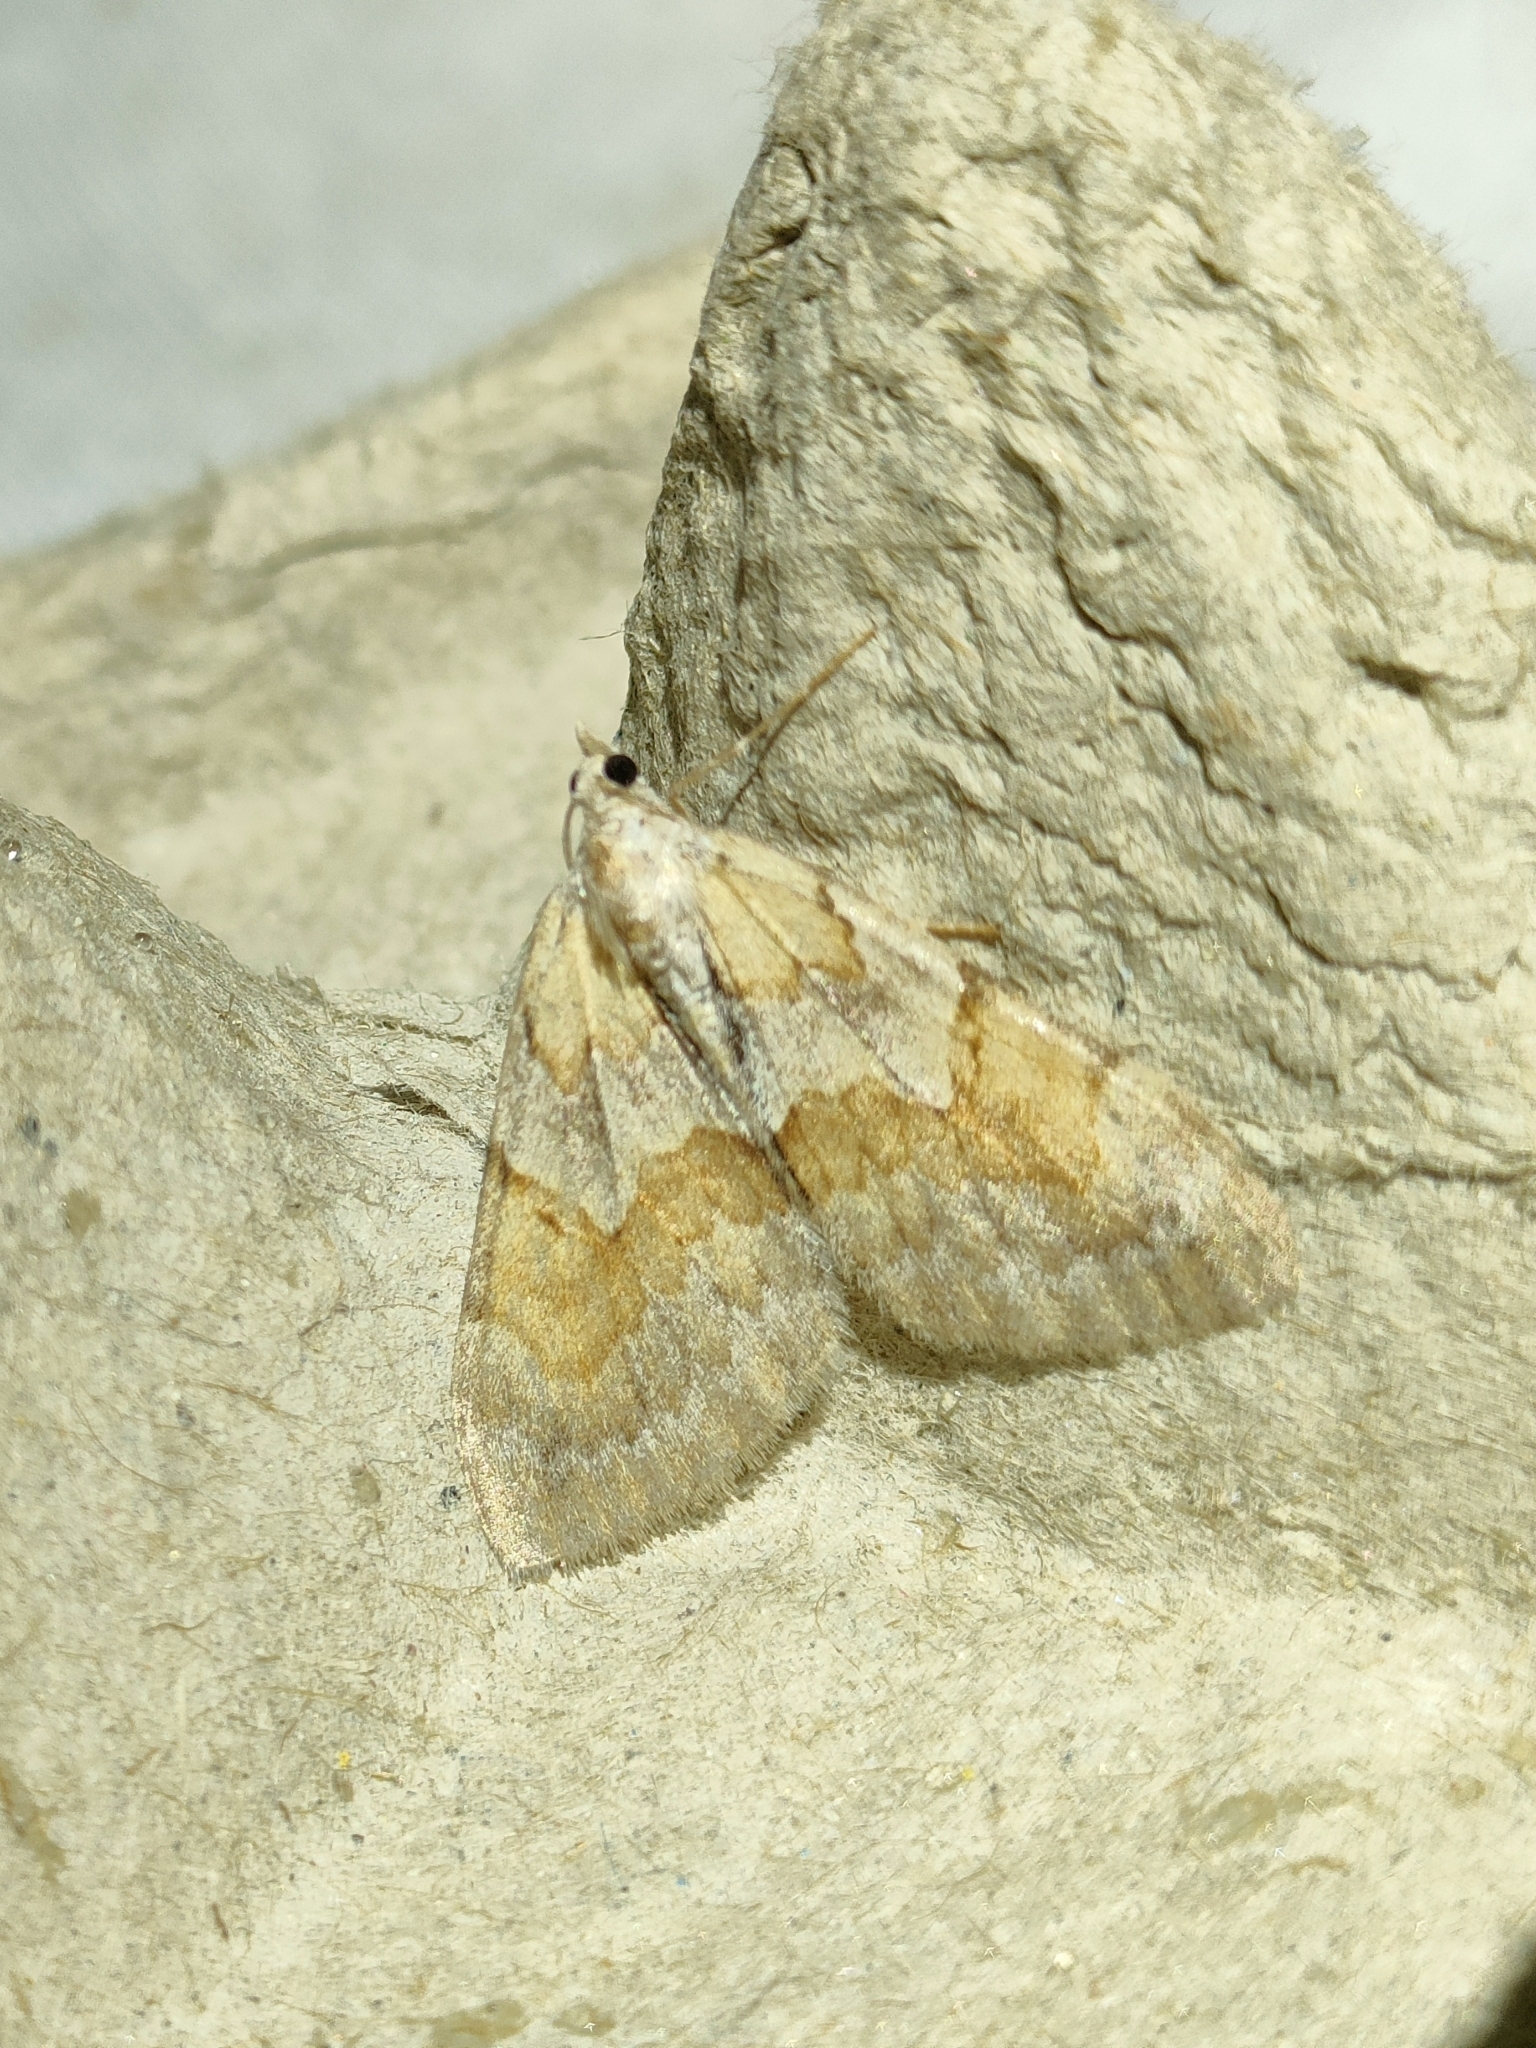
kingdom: Animalia
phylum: Arthropoda
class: Insecta
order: Lepidoptera
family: Geometridae
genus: Pennithera
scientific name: Pennithera firmata
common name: Pine carpet
